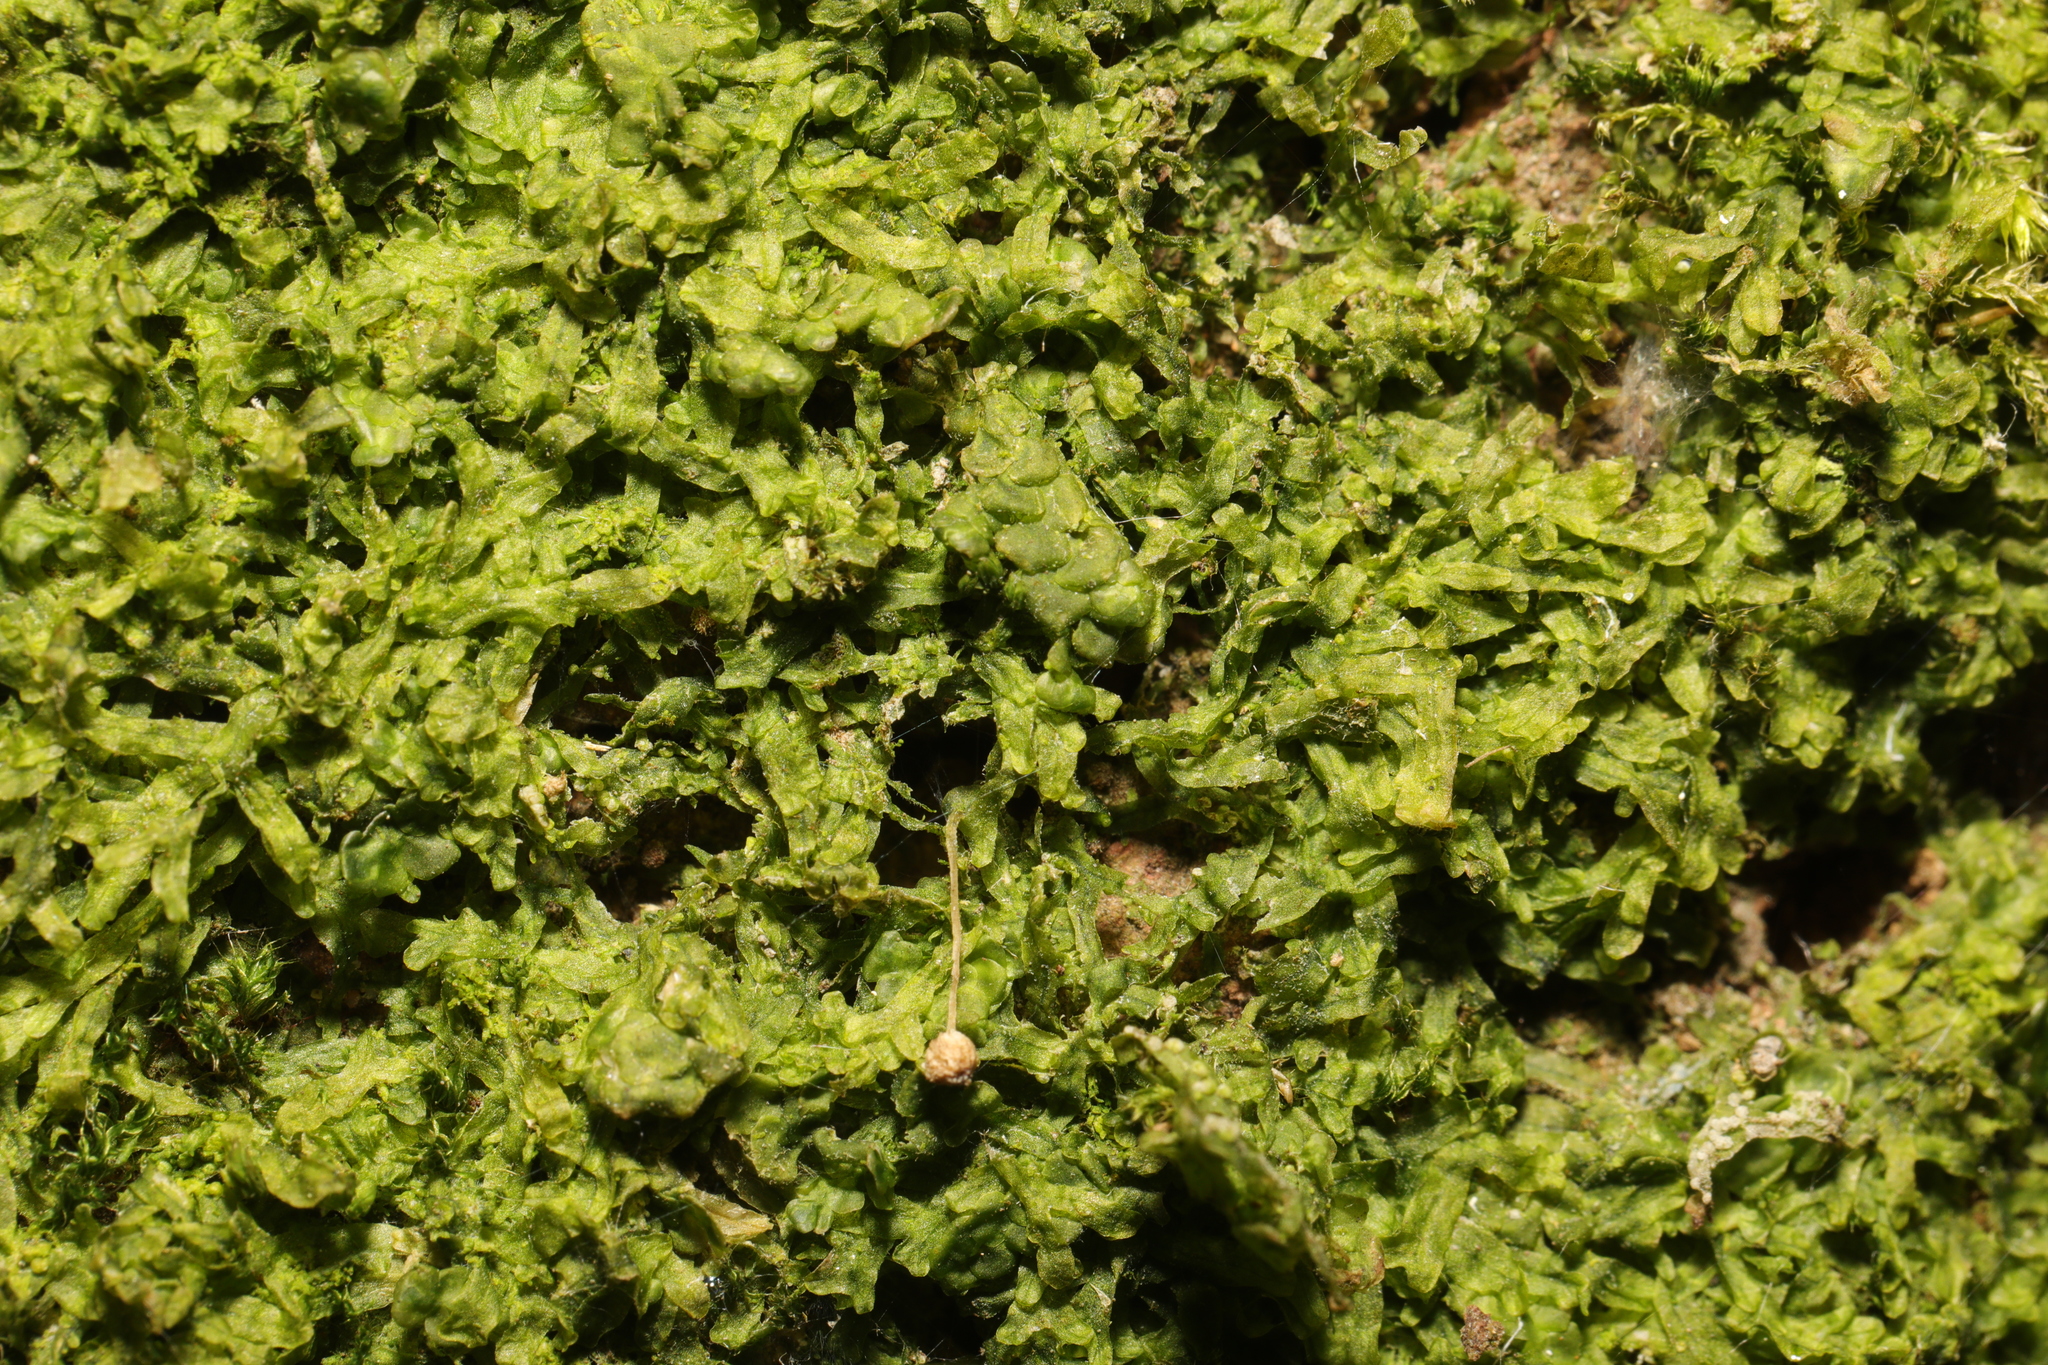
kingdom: Plantae
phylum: Marchantiophyta
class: Jungermanniopsida
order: Metzgeriales
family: Metzgeriaceae
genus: Metzgeria
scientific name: Metzgeria furcata
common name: Forked veilwort
